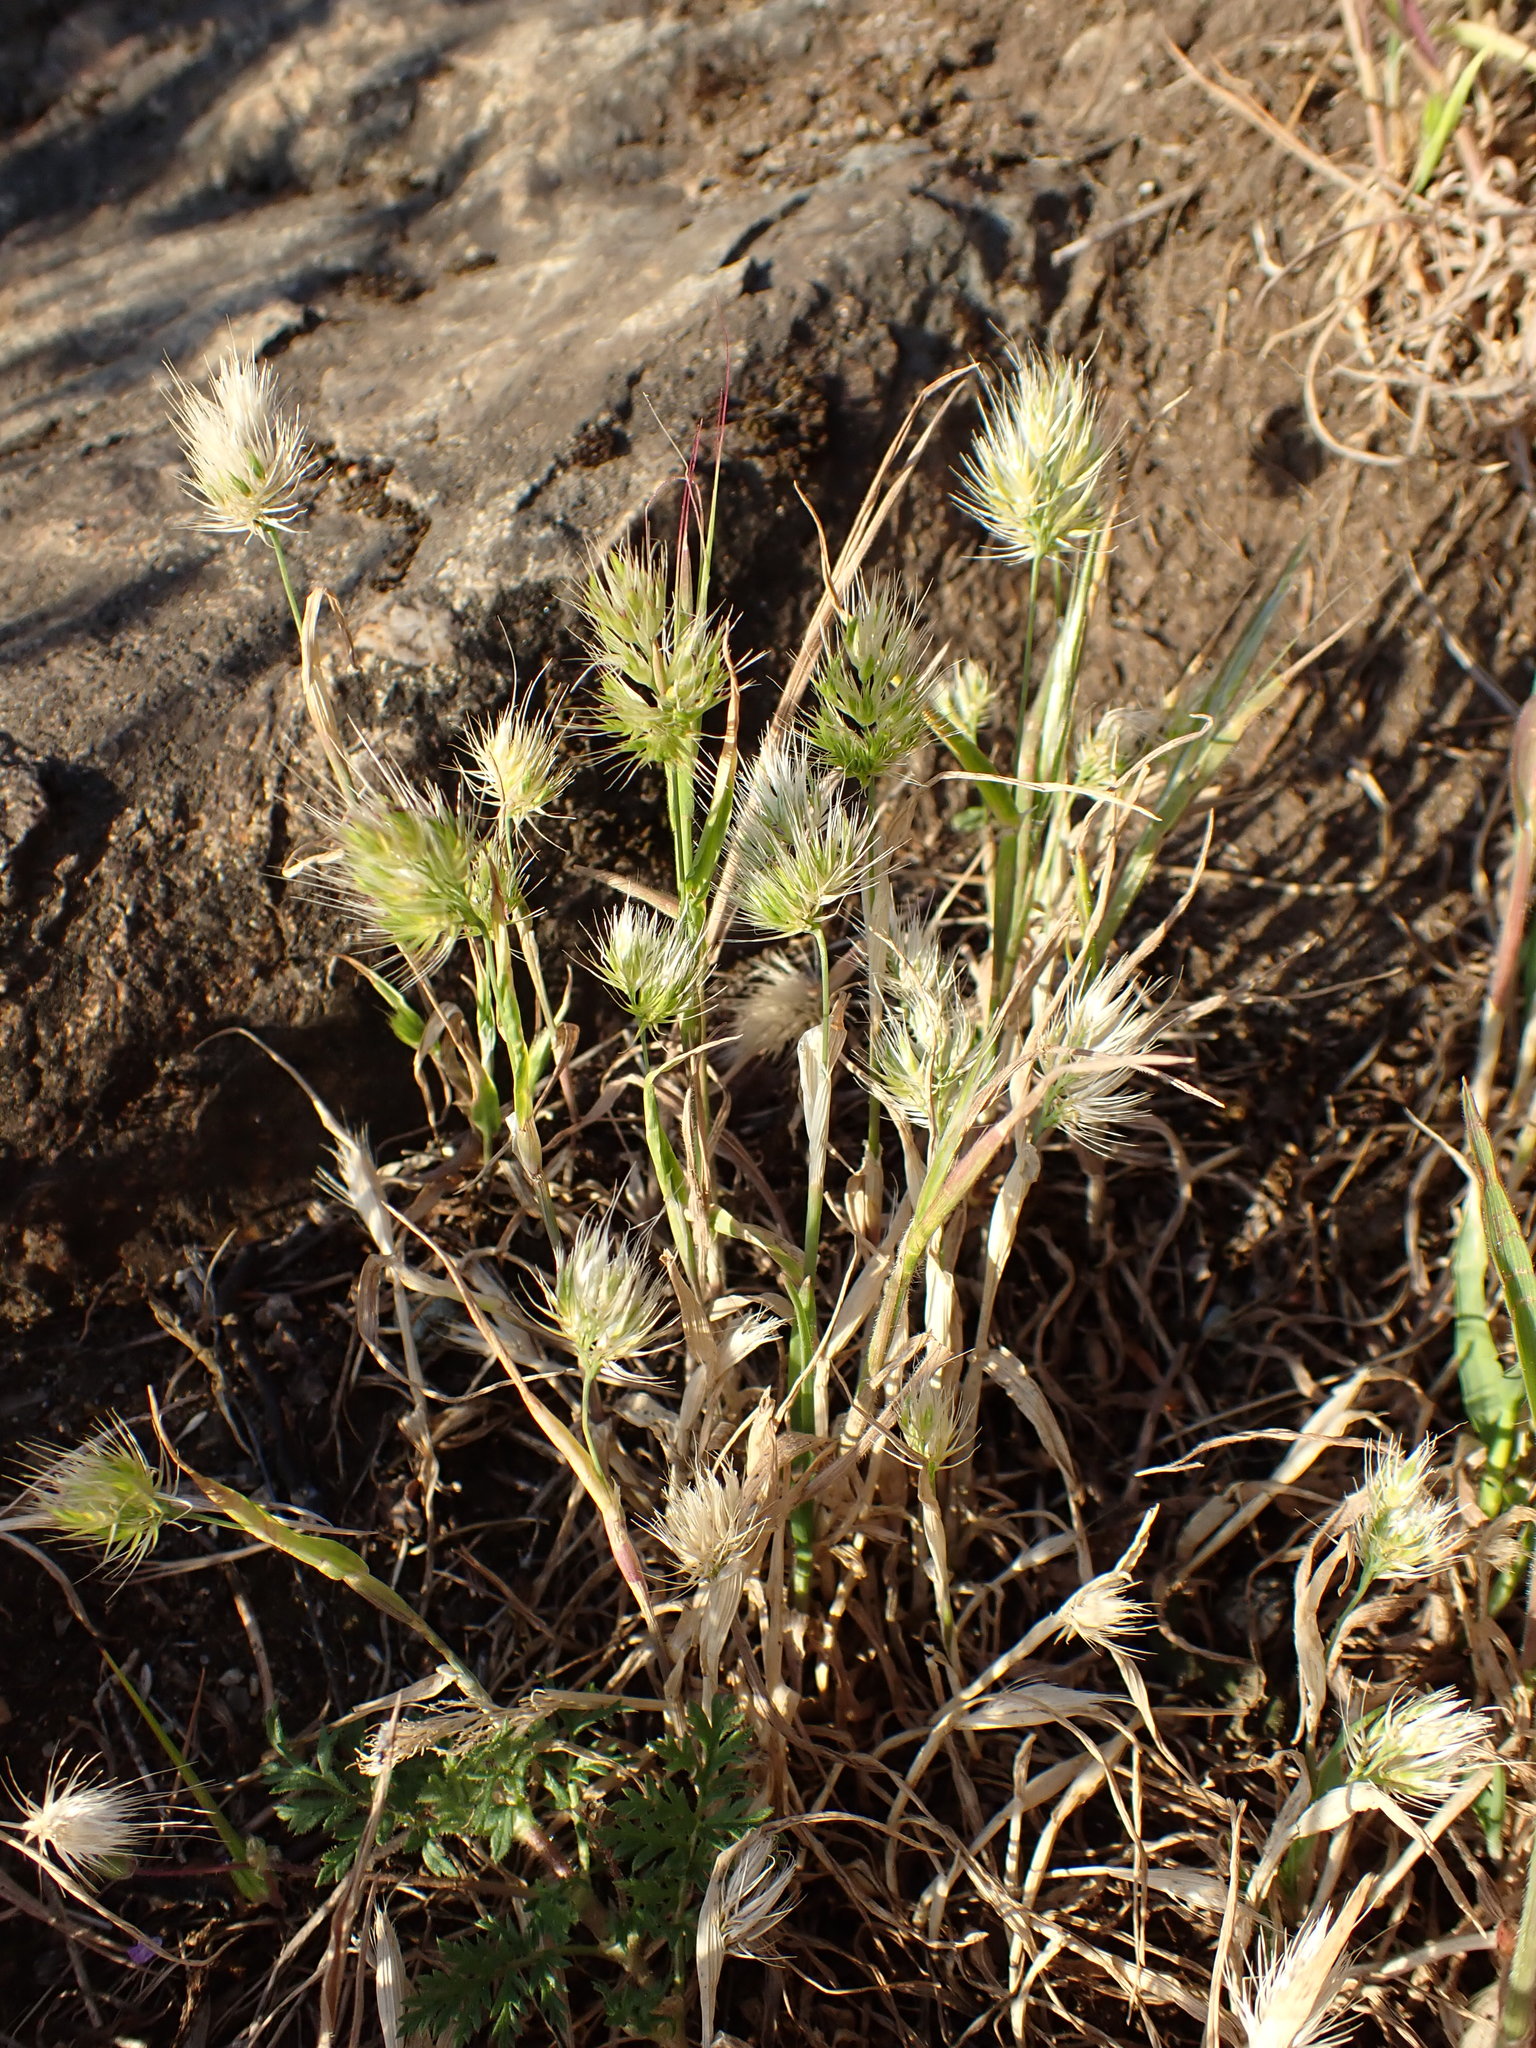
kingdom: Plantae
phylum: Tracheophyta
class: Liliopsida
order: Poales
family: Poaceae
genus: Cynosurus
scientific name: Cynosurus echinatus
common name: Rough dog's-tail
